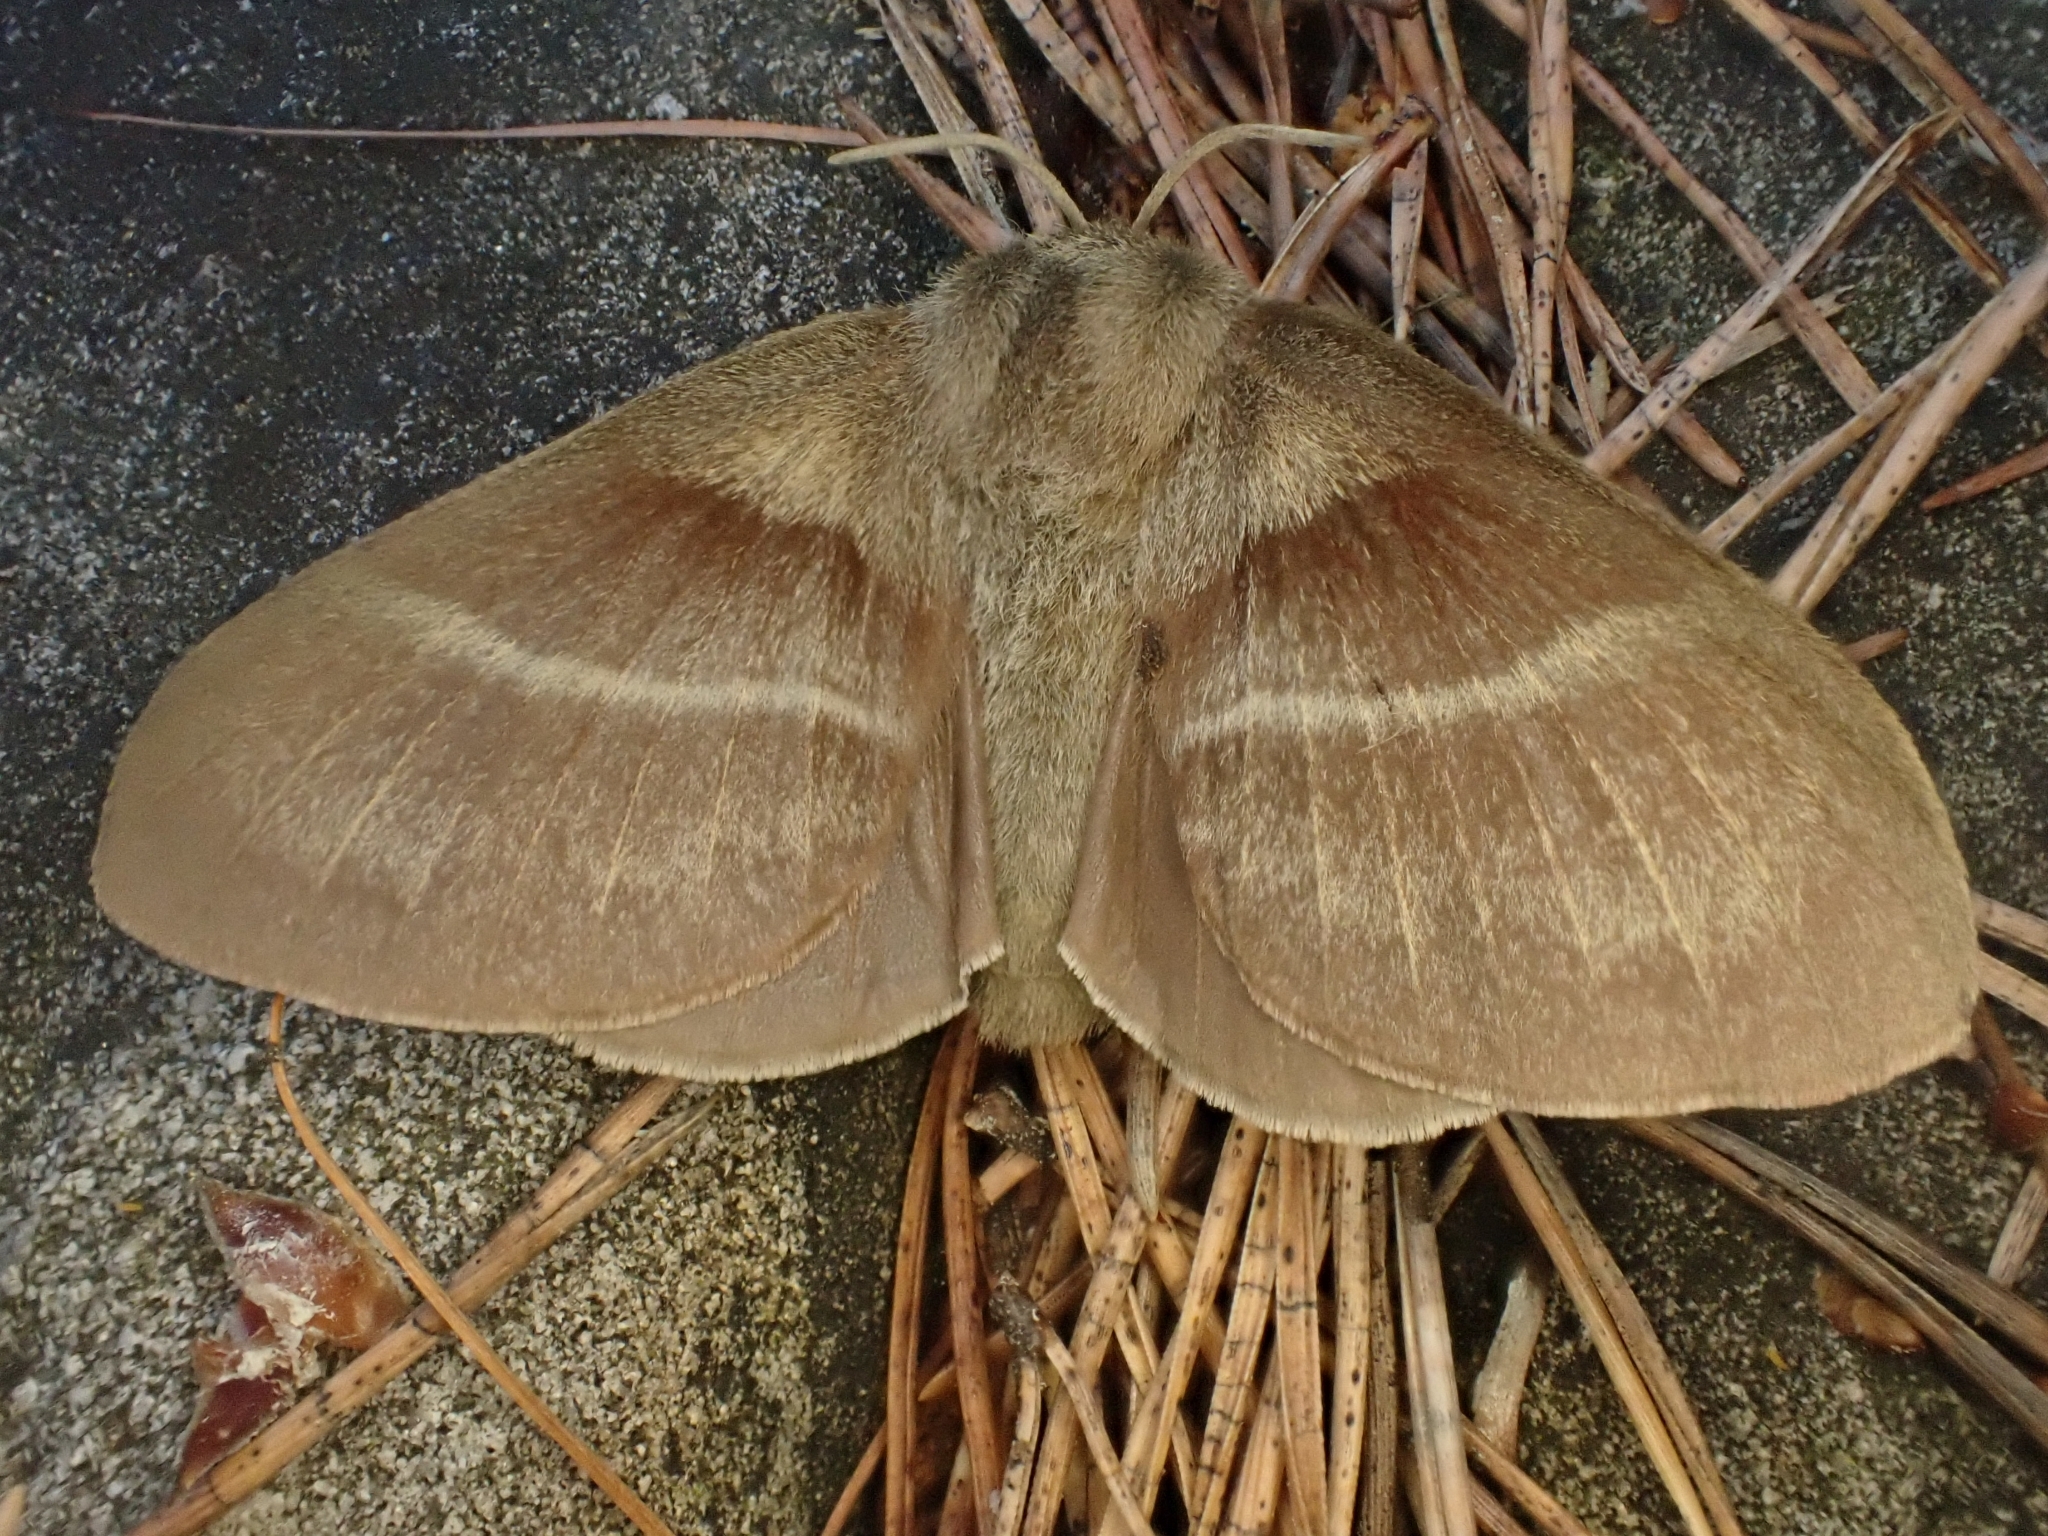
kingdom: Animalia
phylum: Arthropoda
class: Insecta
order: Lepidoptera
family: Lasiocampidae
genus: Macrothylacia
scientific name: Macrothylacia rubi
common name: Fox moth
